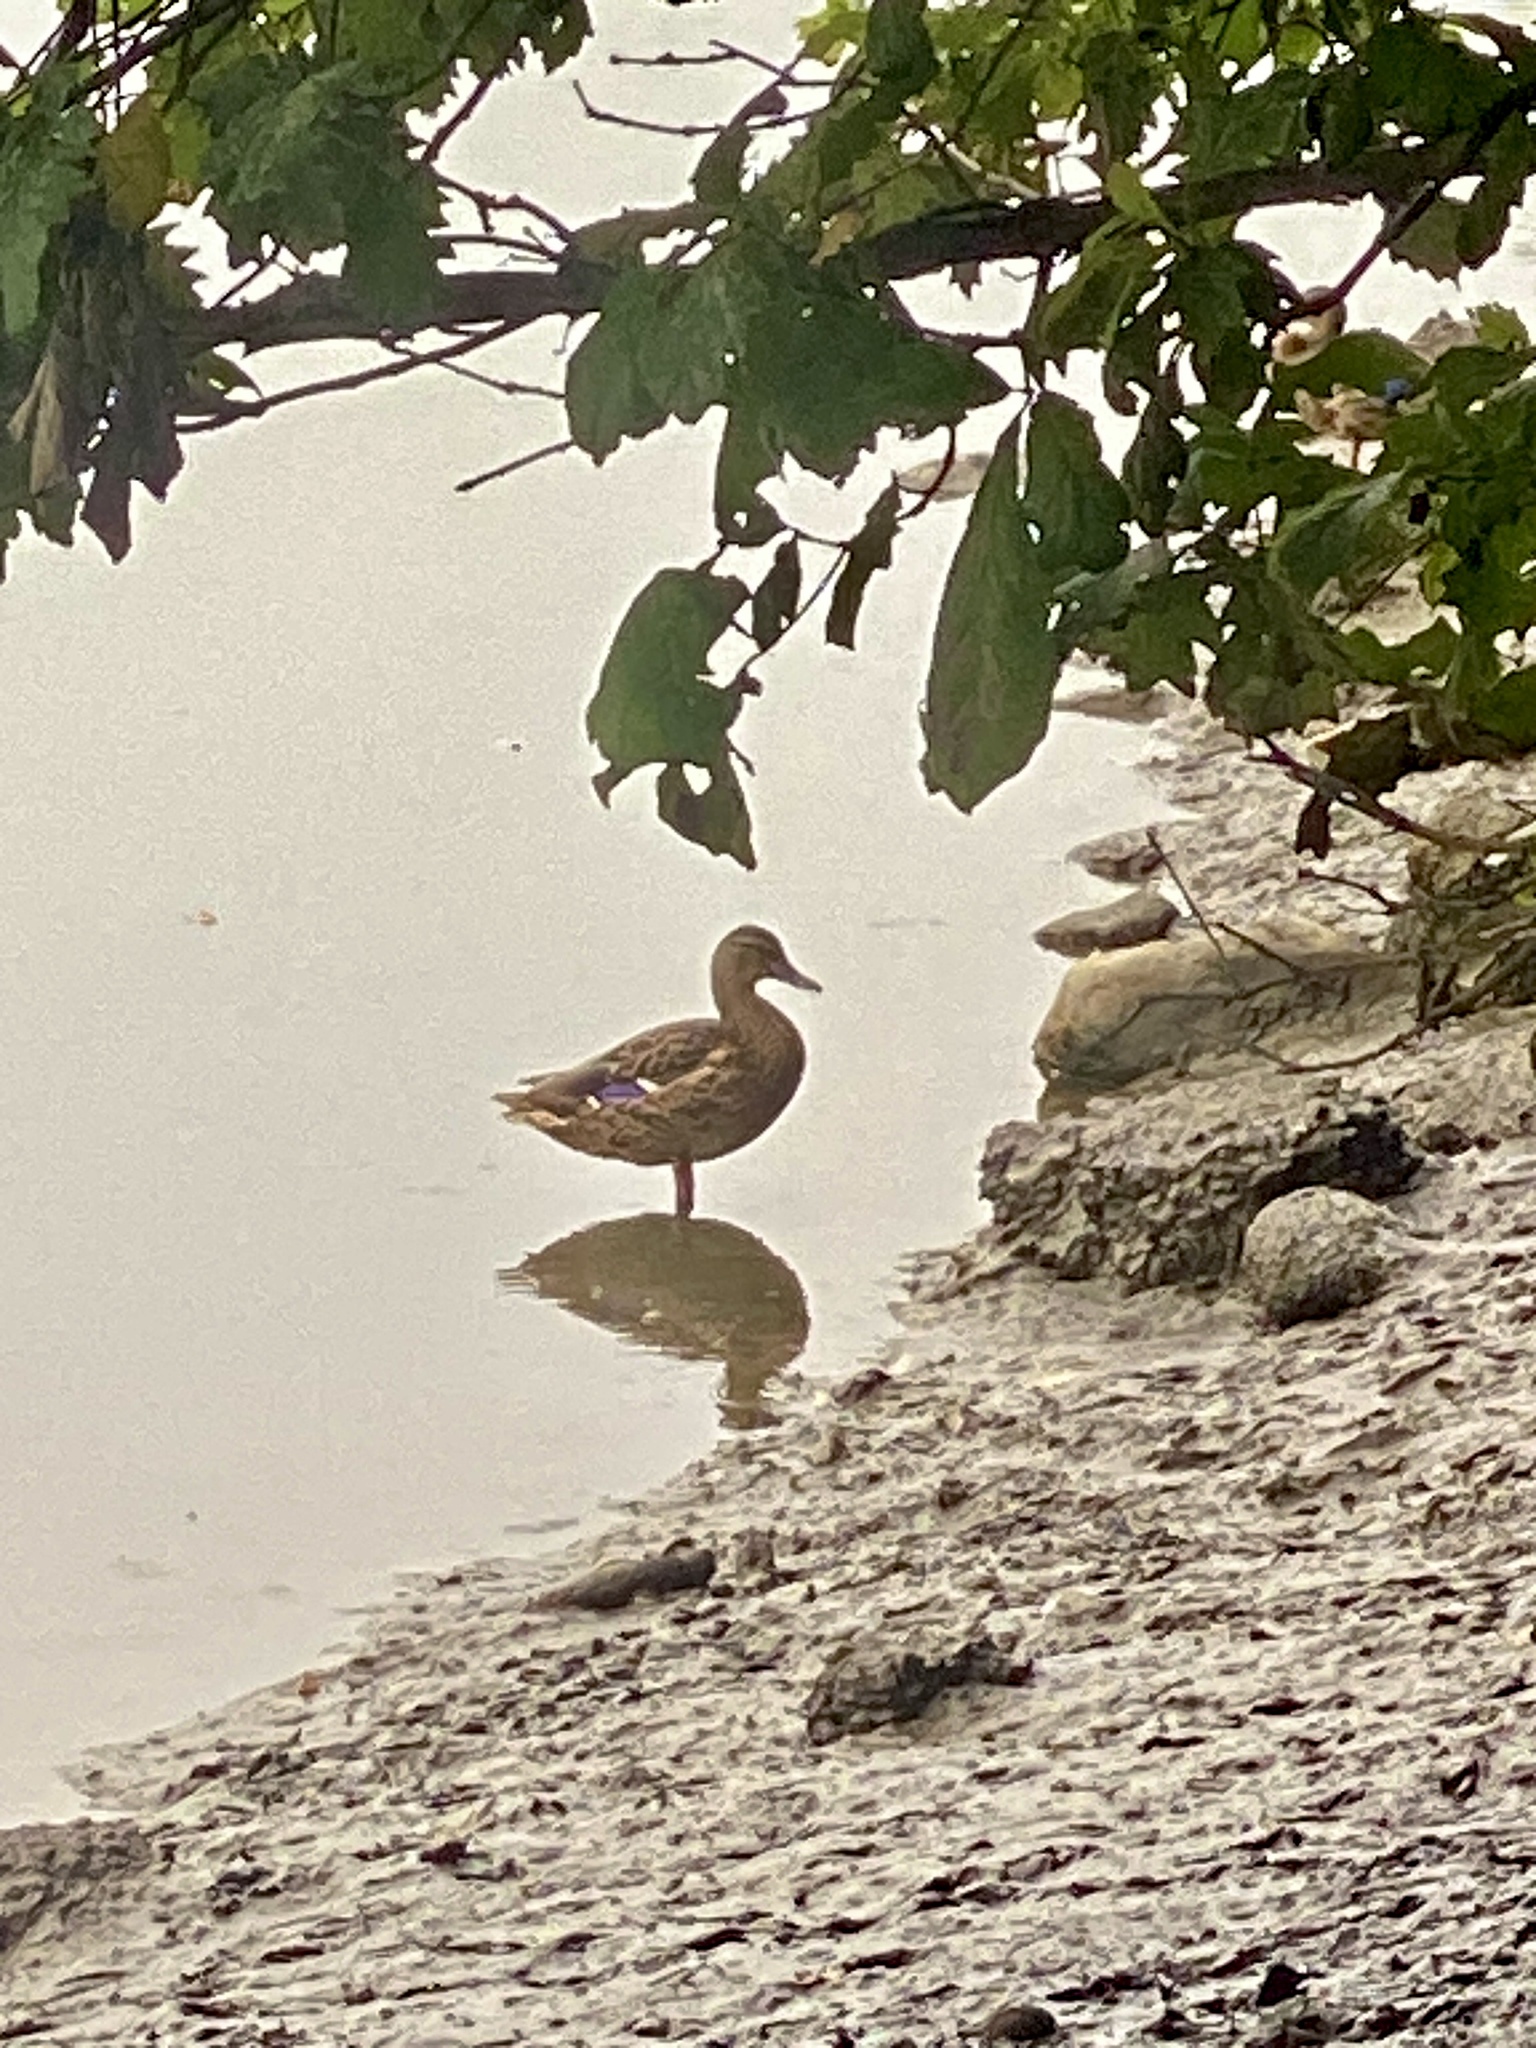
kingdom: Animalia
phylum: Chordata
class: Aves
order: Anseriformes
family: Anatidae
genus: Anas
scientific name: Anas platyrhynchos
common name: Mallard
